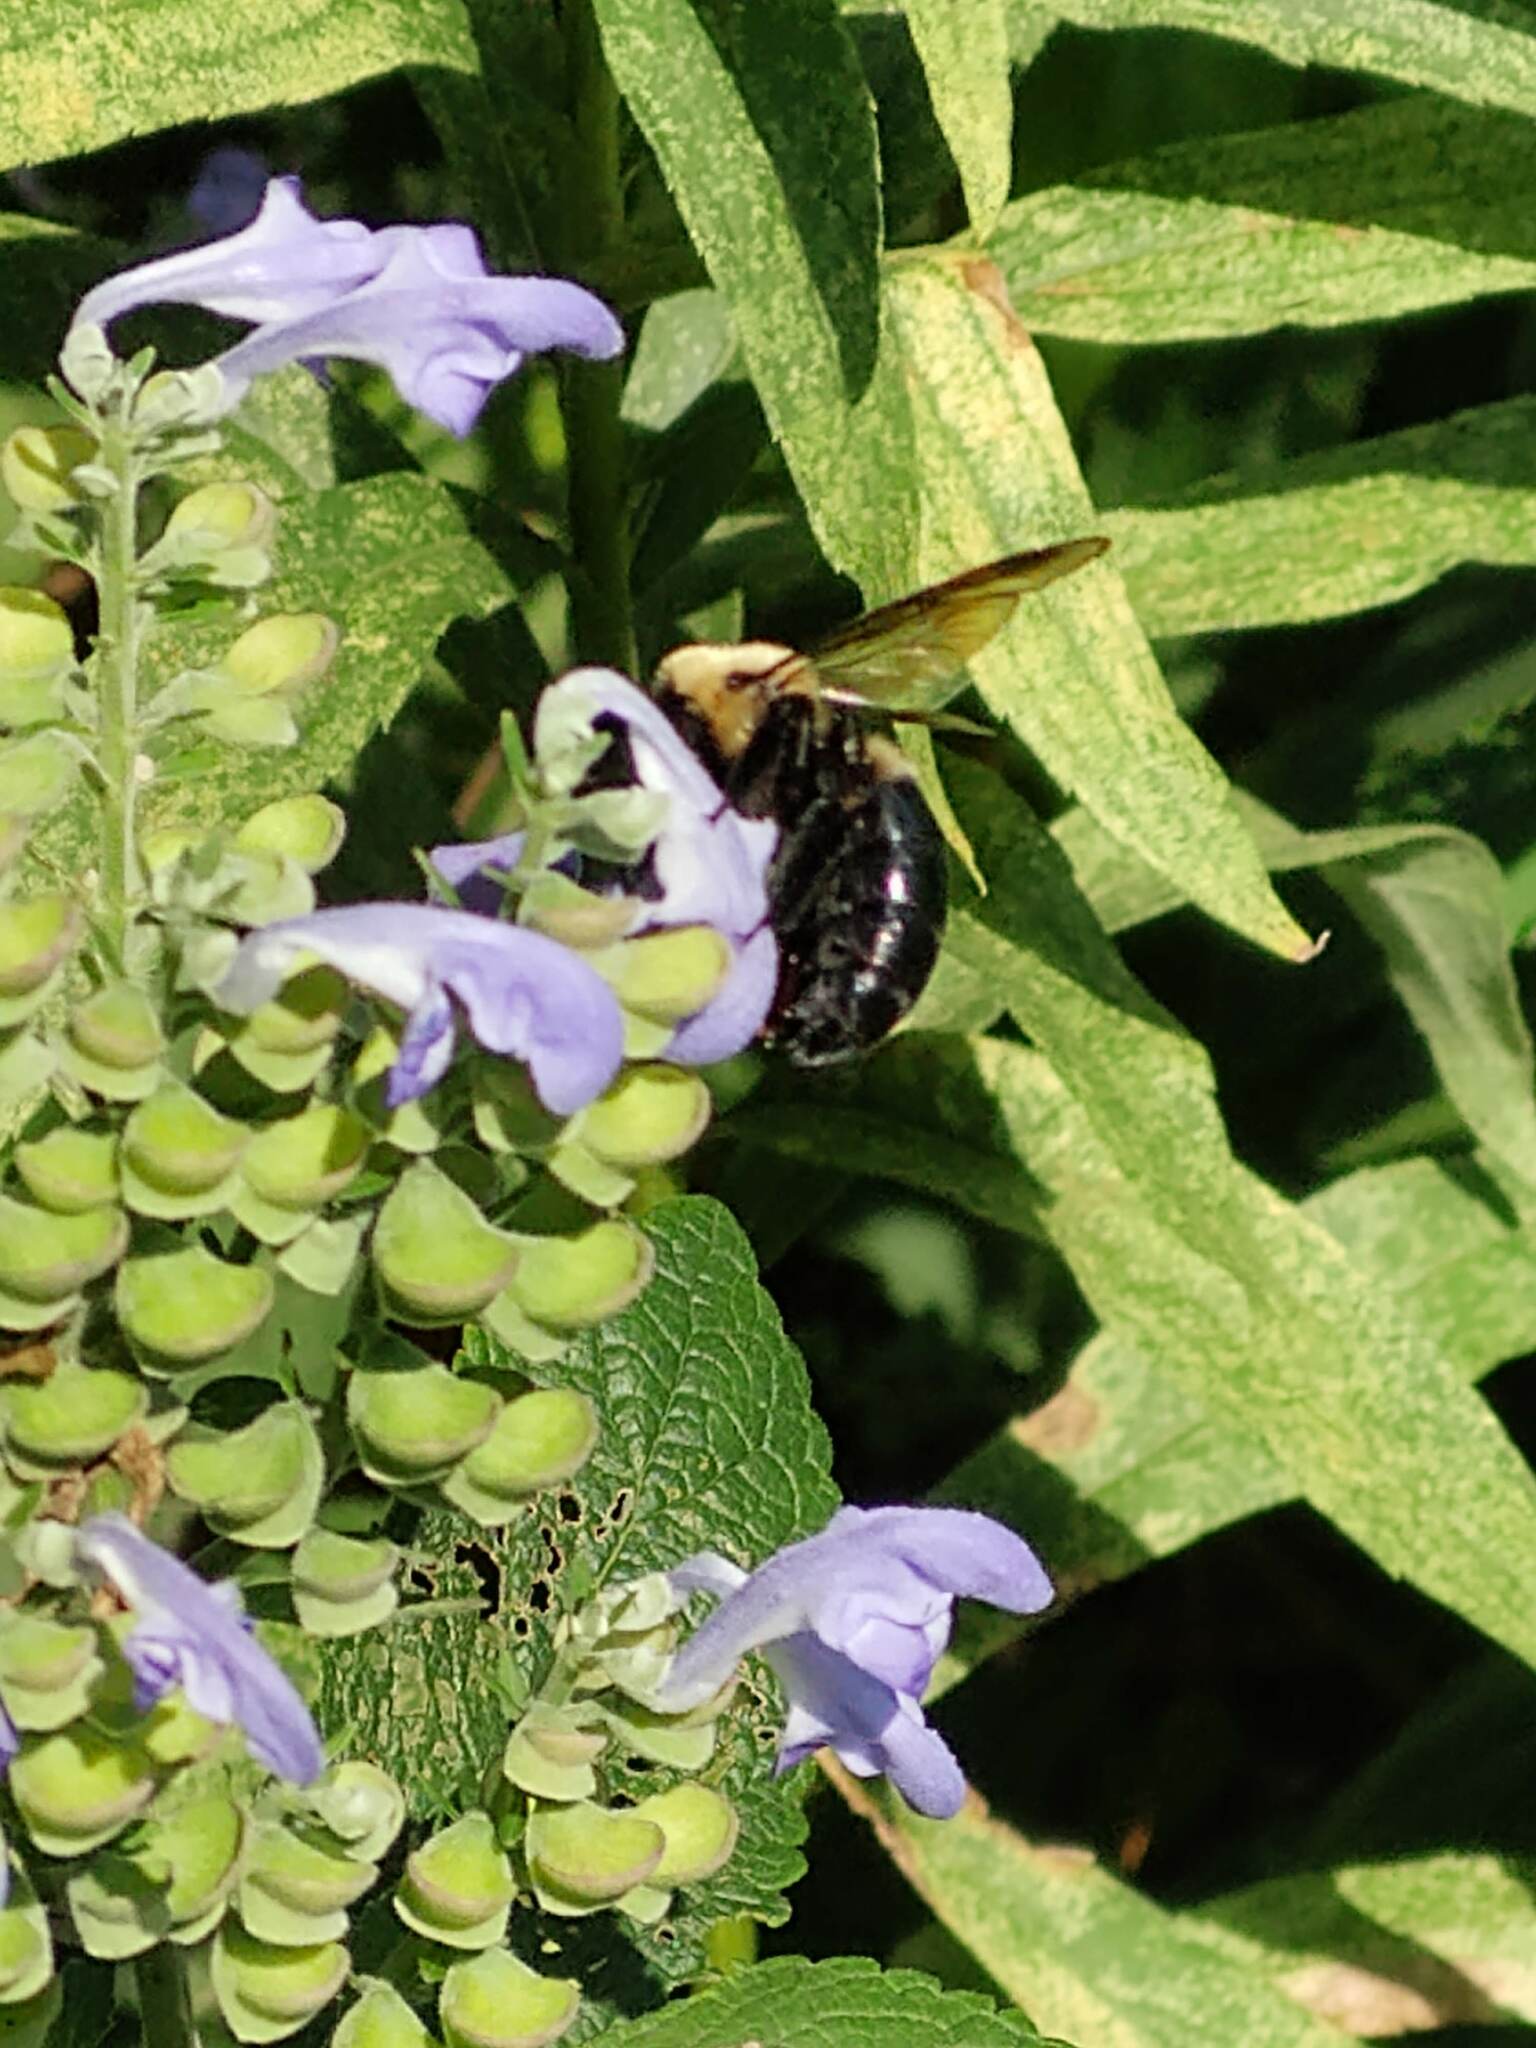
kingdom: Animalia
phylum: Arthropoda
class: Insecta
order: Hymenoptera
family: Apidae
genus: Xylocopa
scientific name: Xylocopa virginica
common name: Carpenter bee
